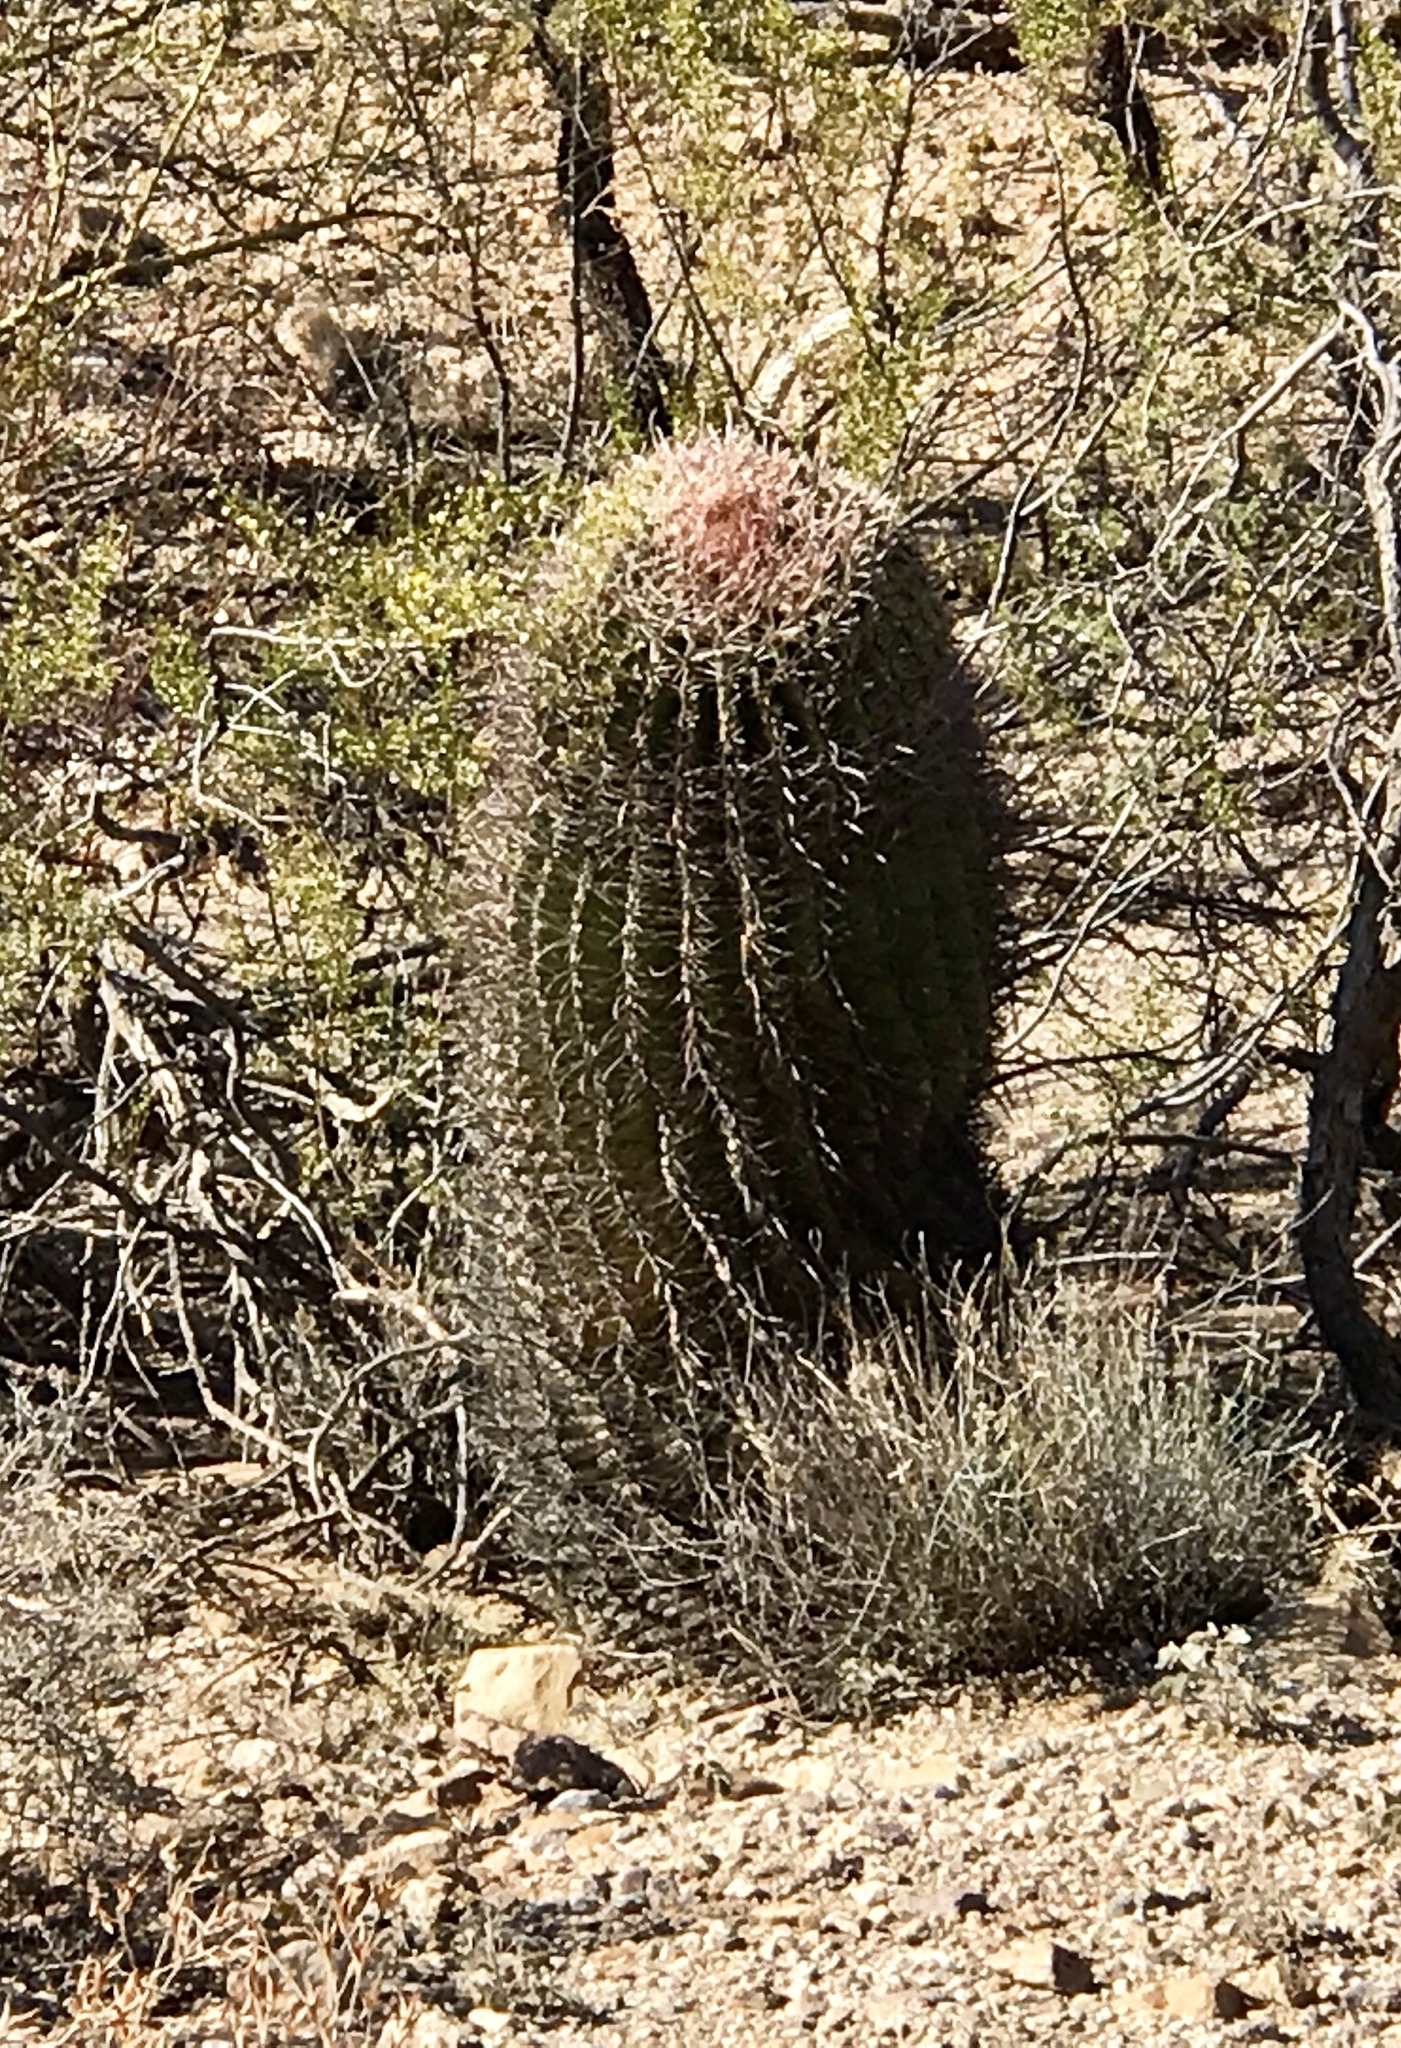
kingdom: Plantae
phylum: Tracheophyta
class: Magnoliopsida
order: Caryophyllales
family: Cactaceae
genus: Ferocactus
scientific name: Ferocactus wislizeni
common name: Candy barrel cactus
